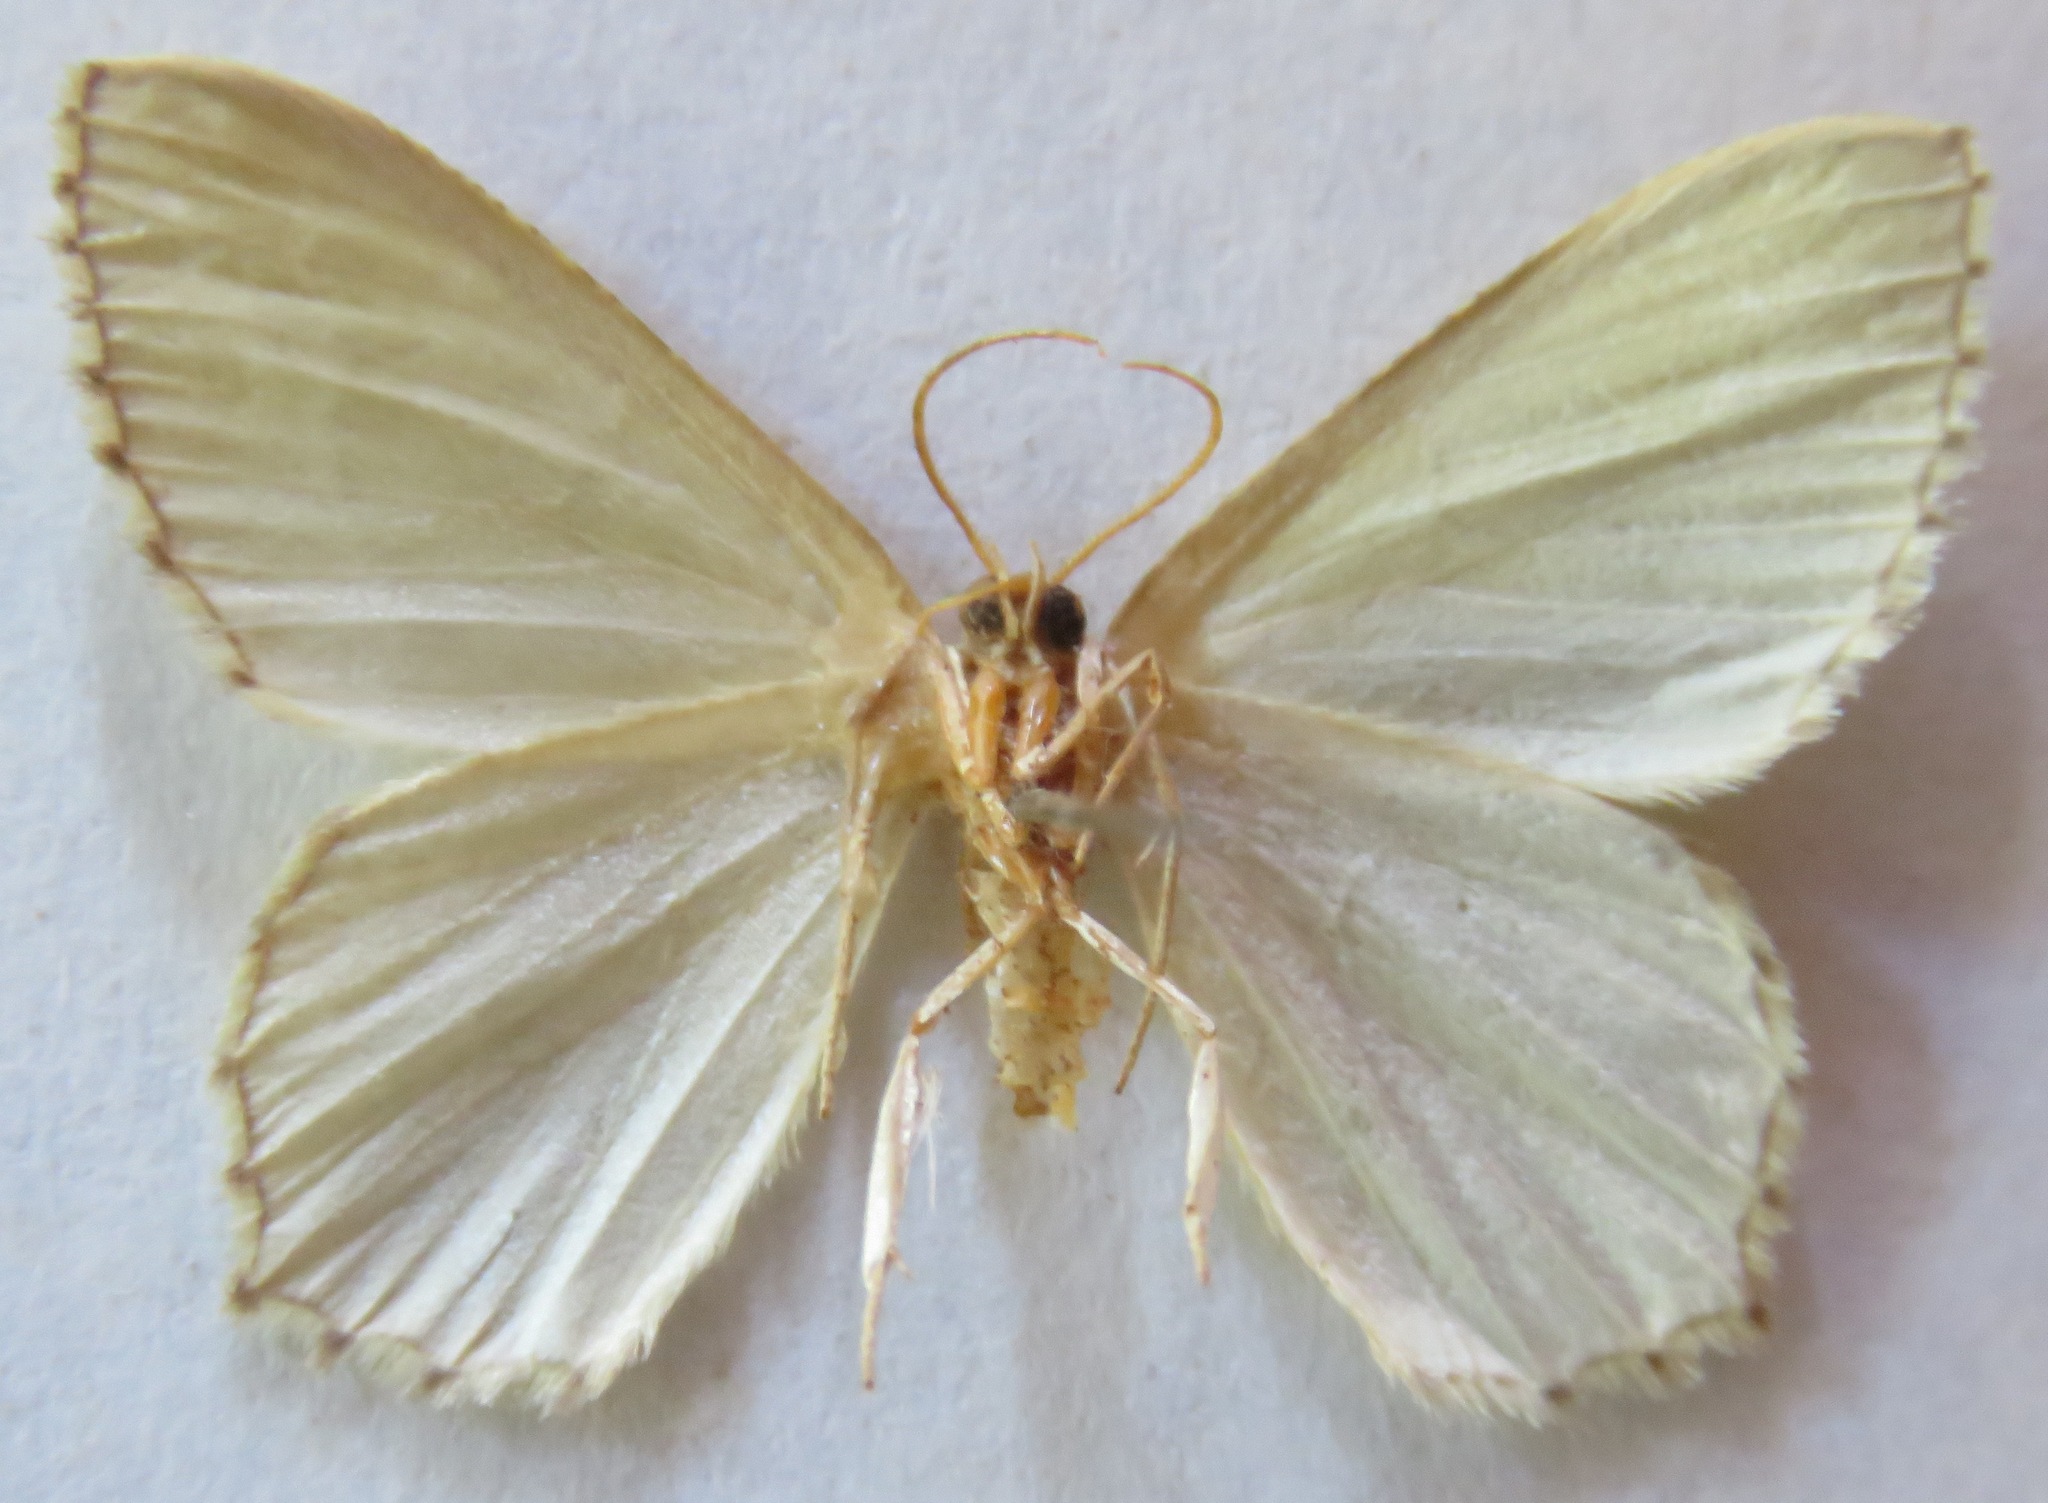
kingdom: Animalia
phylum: Arthropoda
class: Insecta
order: Lepidoptera
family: Geometridae
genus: Hemithea
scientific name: Hemithea aestivaria
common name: Common emerald
